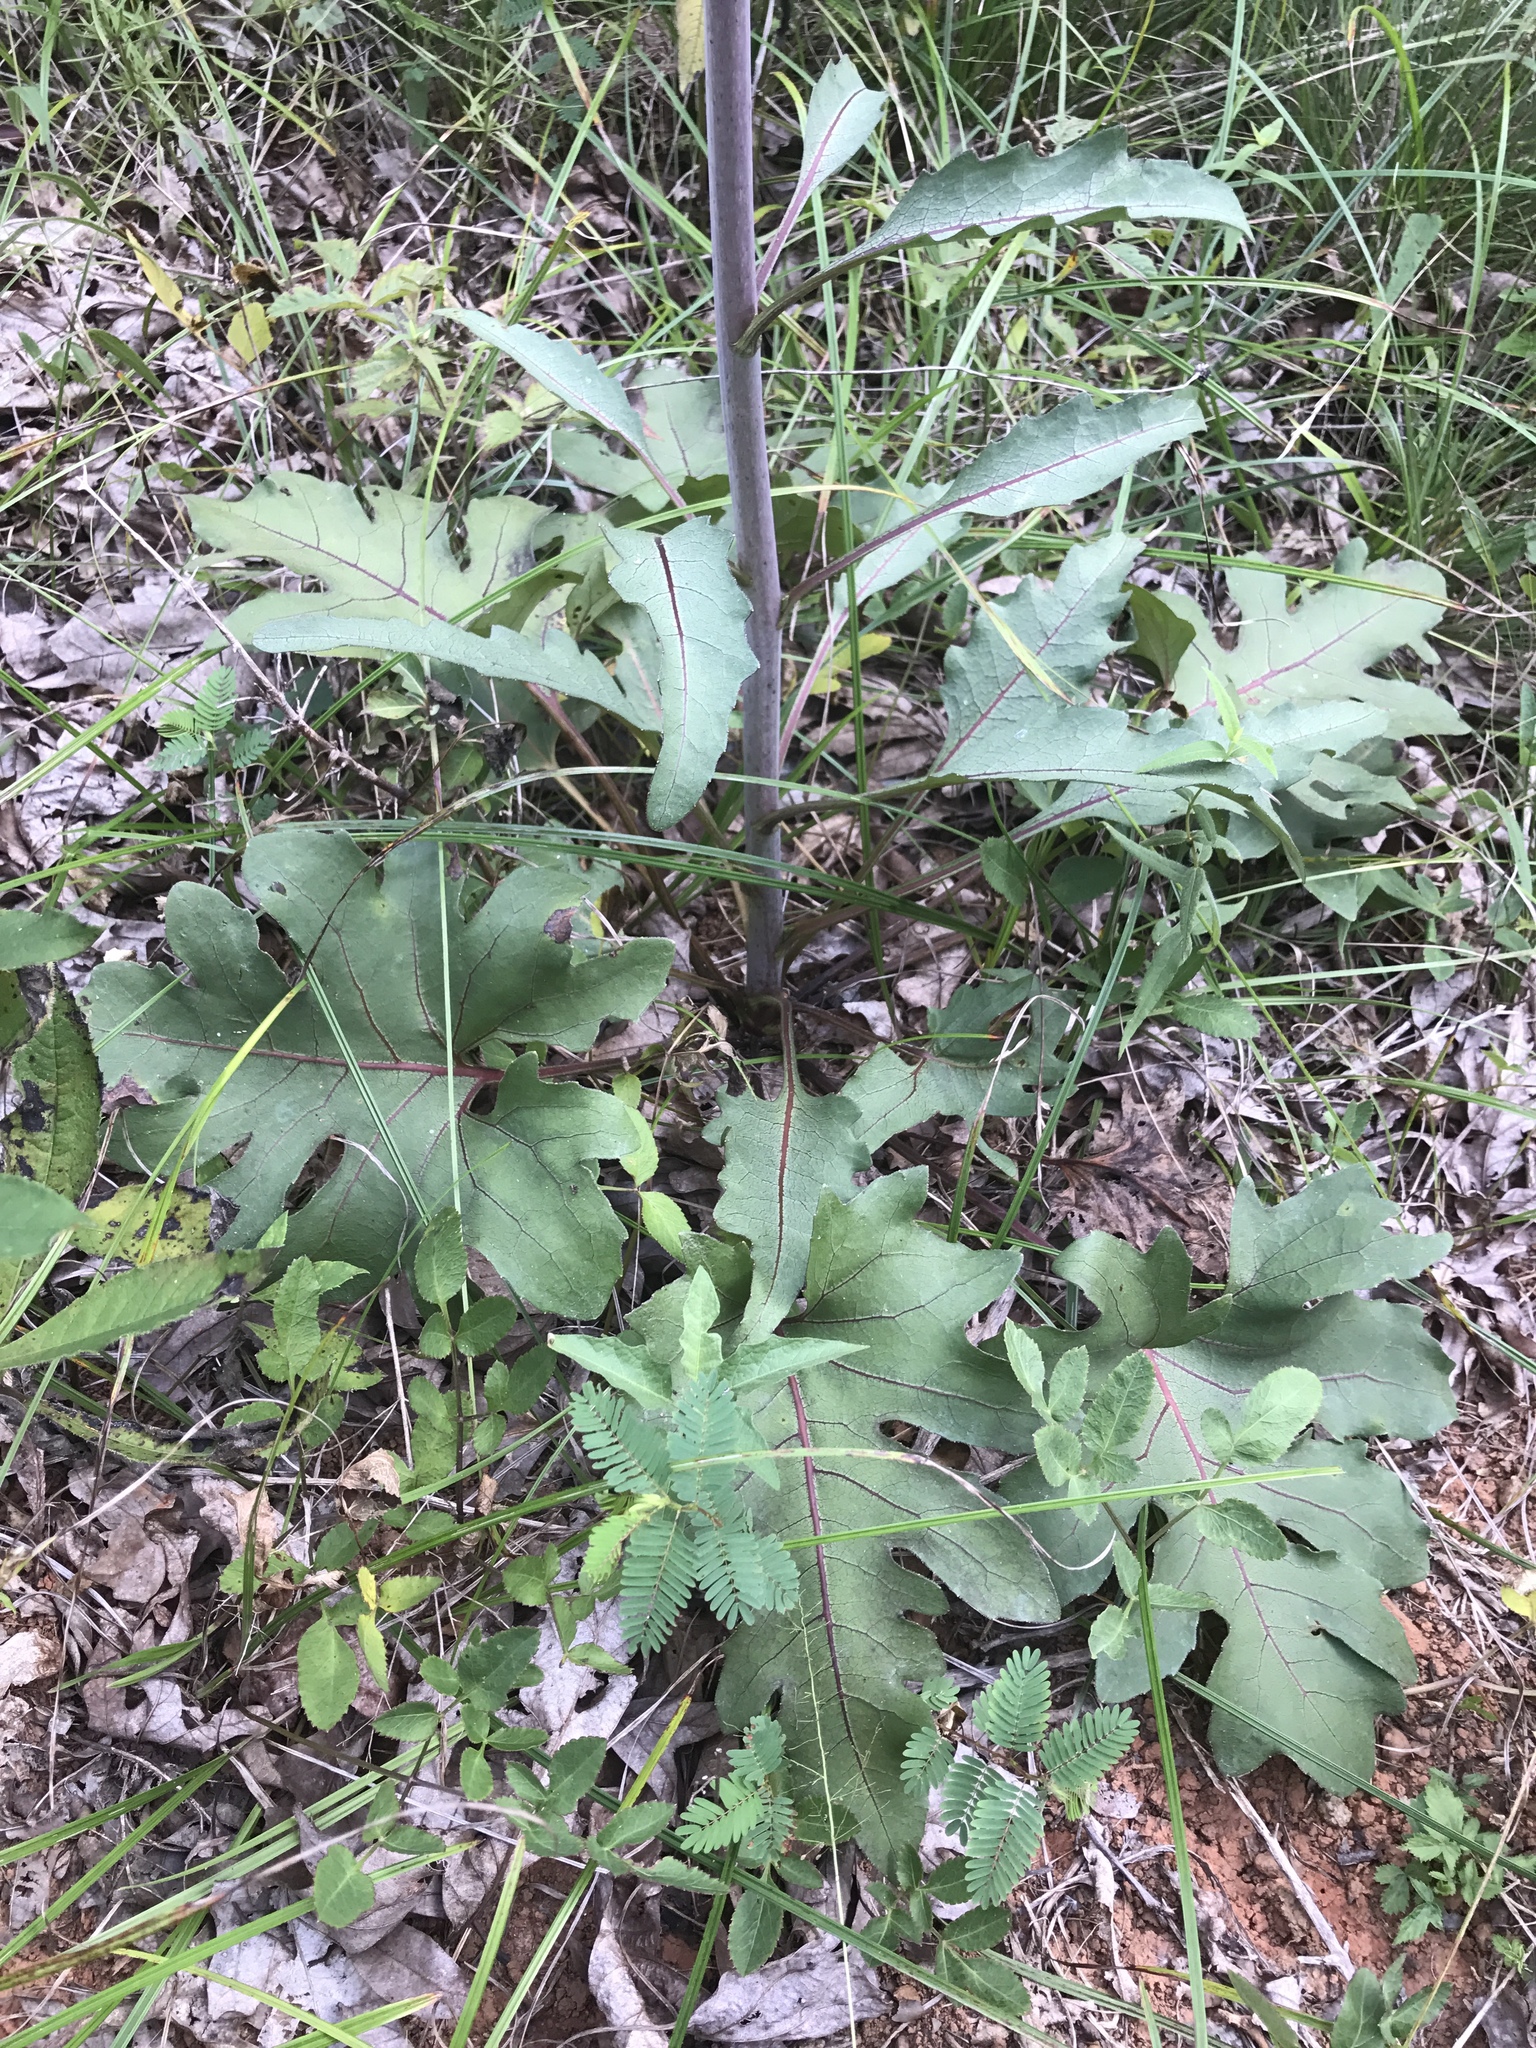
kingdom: Plantae
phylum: Tracheophyta
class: Magnoliopsida
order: Asterales
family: Asteraceae
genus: Silphium
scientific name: Silphium compositum
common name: Lesser basal-leaf rosinweed
